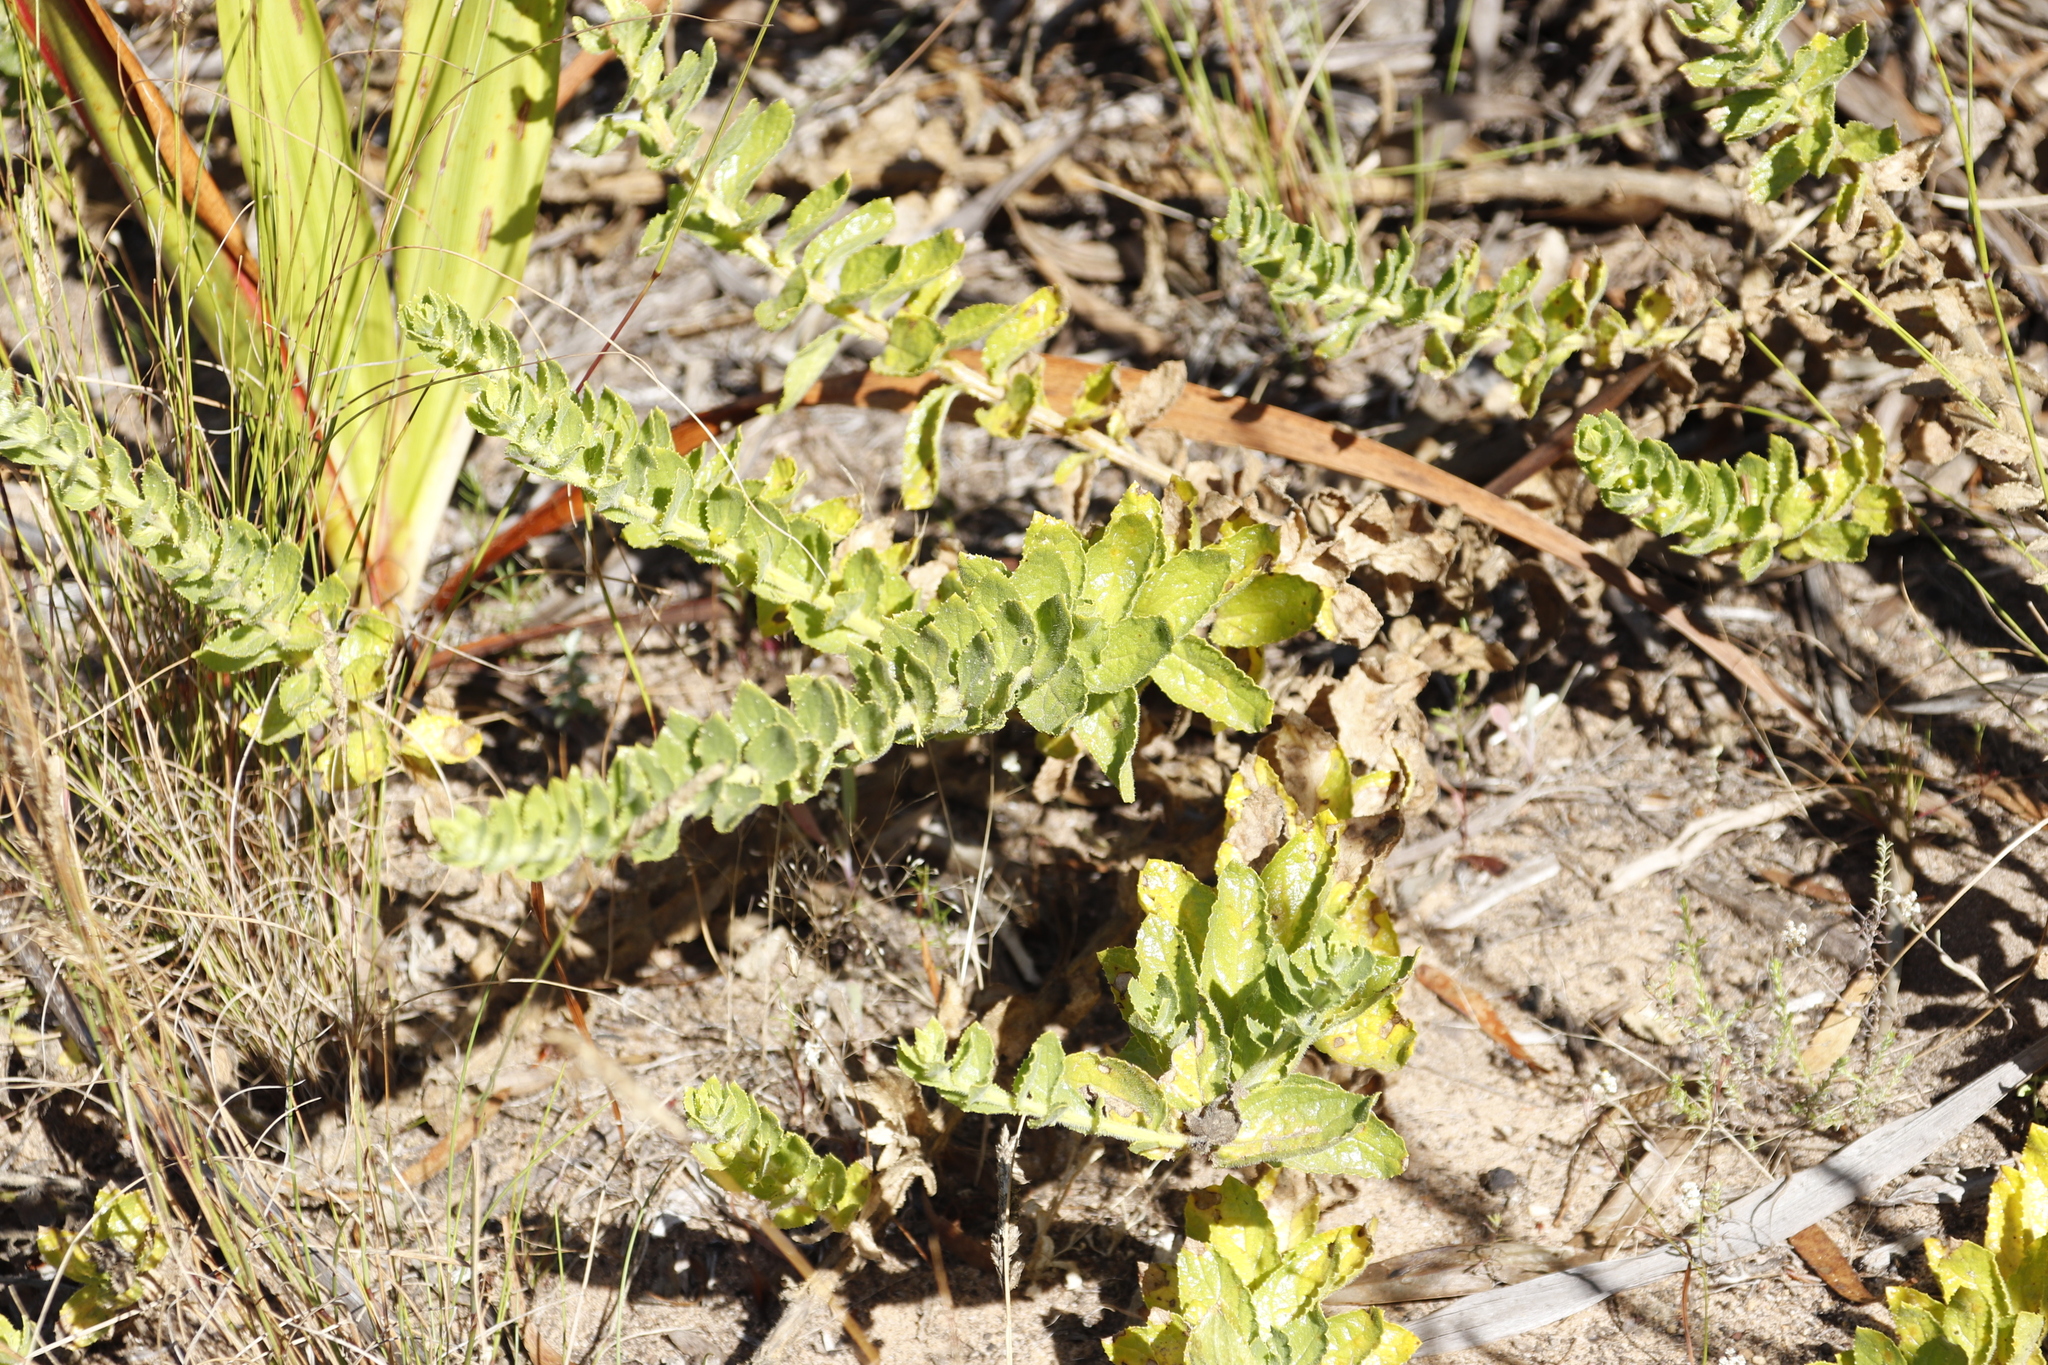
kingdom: Plantae
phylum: Tracheophyta
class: Magnoliopsida
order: Lamiales
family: Scrophulariaceae
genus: Oftia
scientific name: Oftia africana
